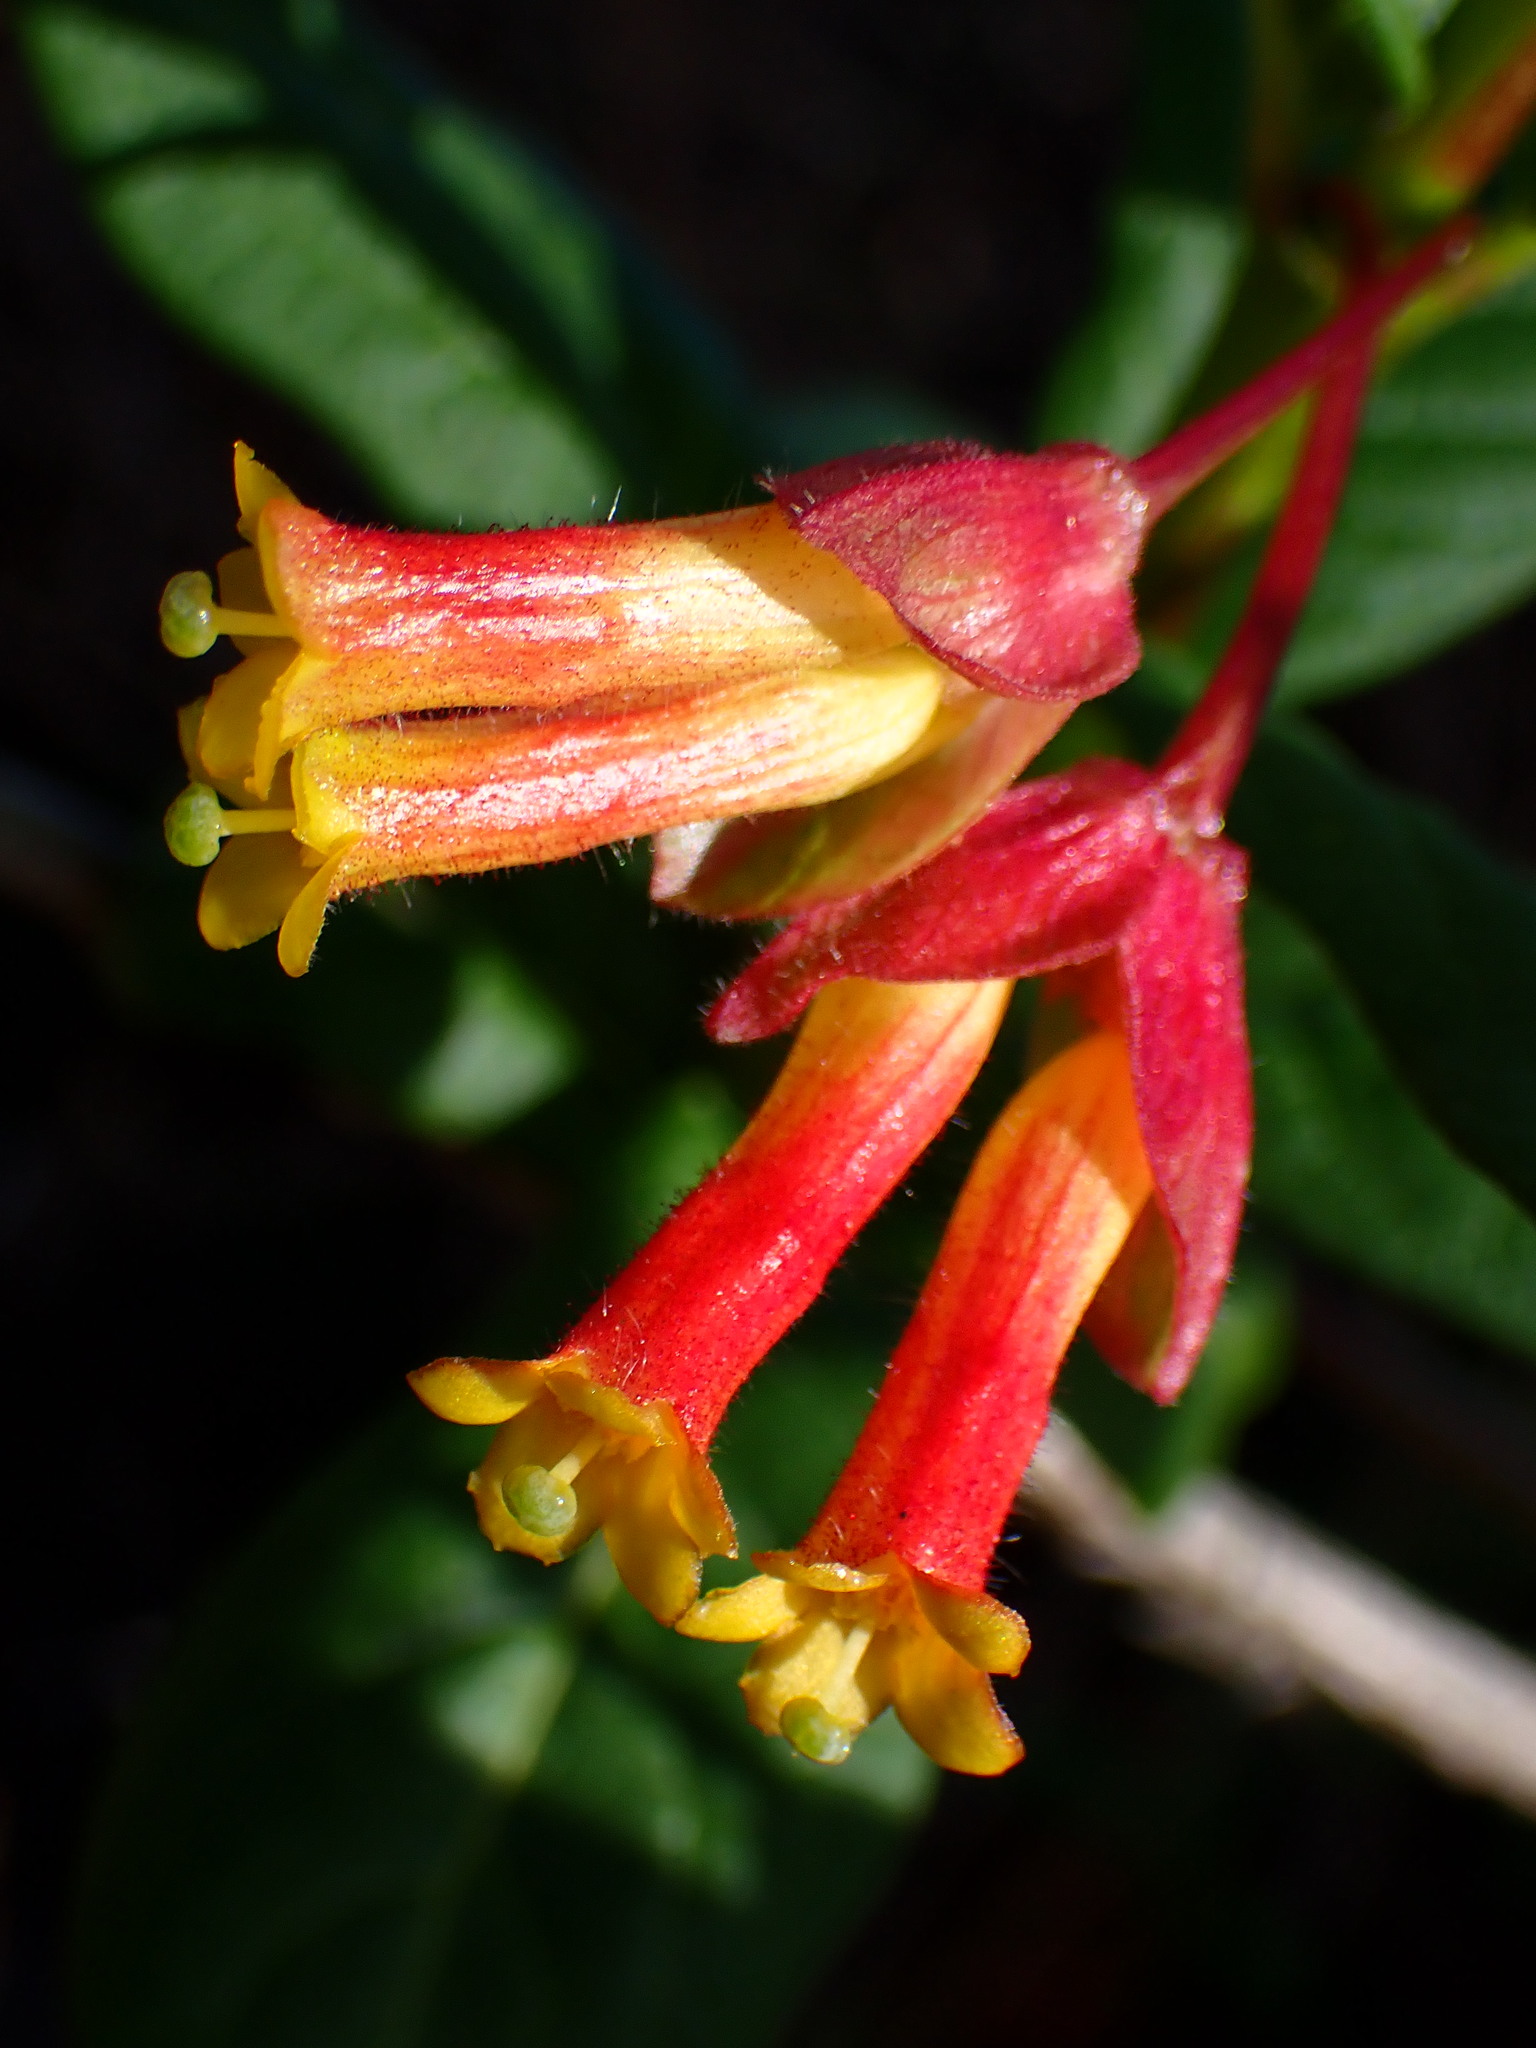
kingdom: Plantae
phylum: Tracheophyta
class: Magnoliopsida
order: Dipsacales
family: Caprifoliaceae
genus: Lonicera
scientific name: Lonicera involucrata
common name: Californian honeysuckle
